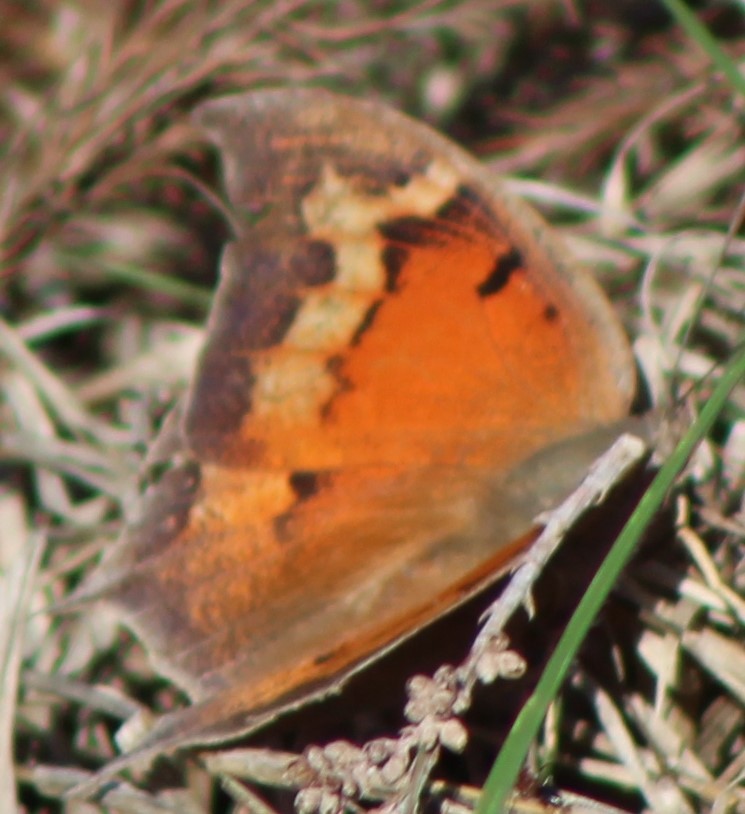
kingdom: Animalia
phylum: Arthropoda
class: Insecta
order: Lepidoptera
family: Nymphalidae
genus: Anaea
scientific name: Anaea andria
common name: Goatweed leafwing
